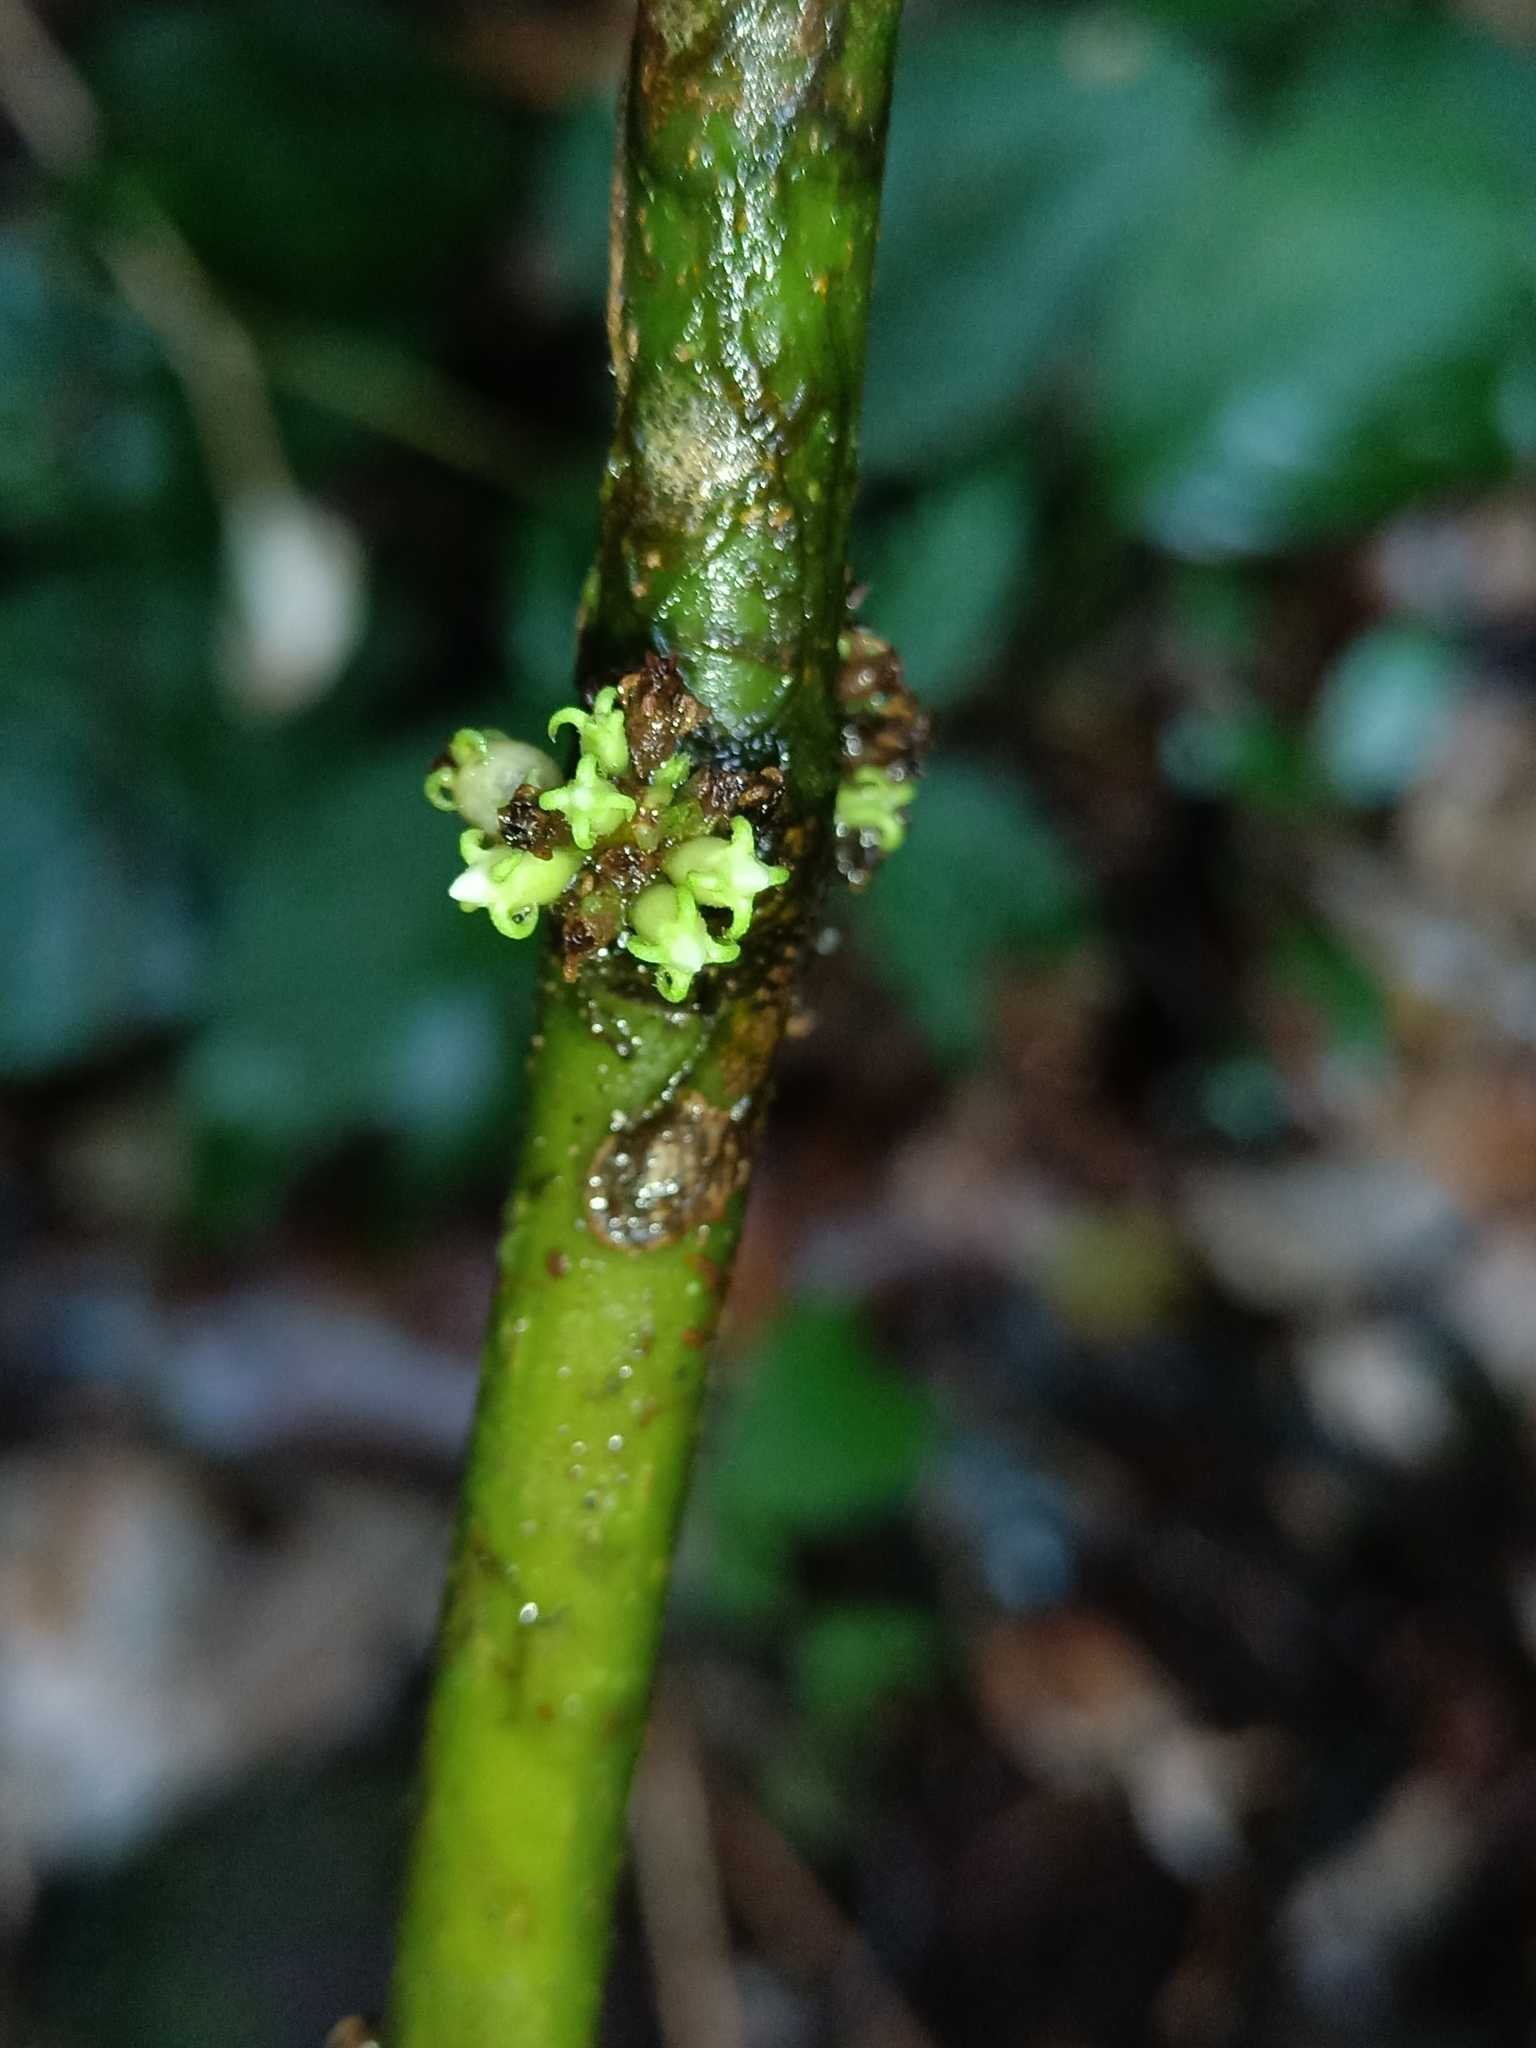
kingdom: Plantae
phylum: Tracheophyta
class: Magnoliopsida
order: Myrtales
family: Melastomataceae
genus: Miconia
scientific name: Miconia venosa
